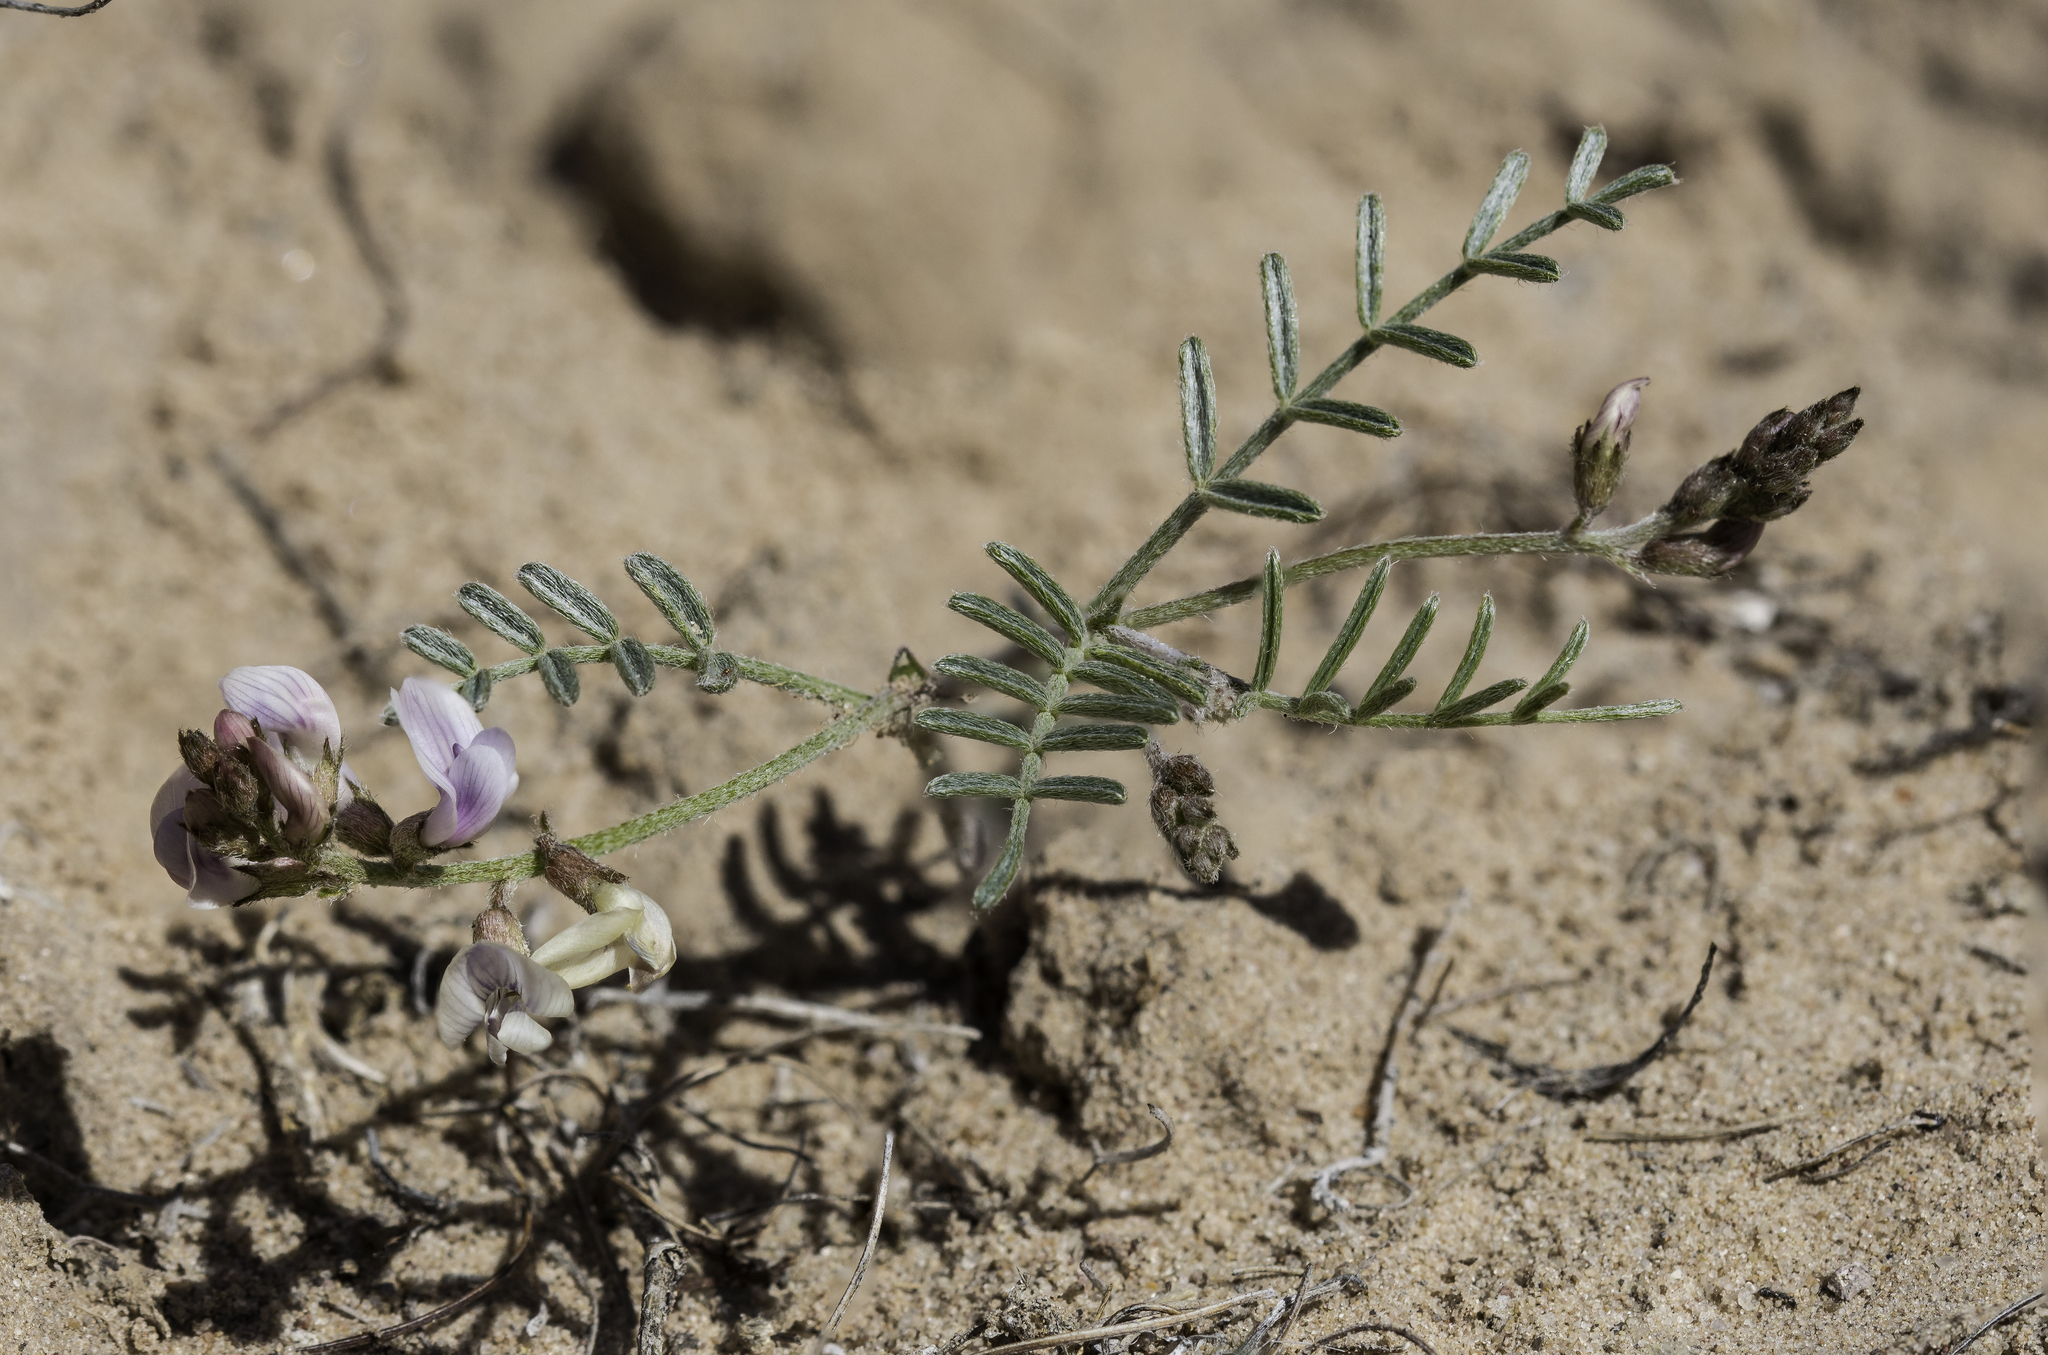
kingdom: Plantae
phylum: Tracheophyta
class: Magnoliopsida
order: Fabales
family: Fabaceae
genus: Astragalus
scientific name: Astragalus ceramicus
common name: Painted milk-vetch
